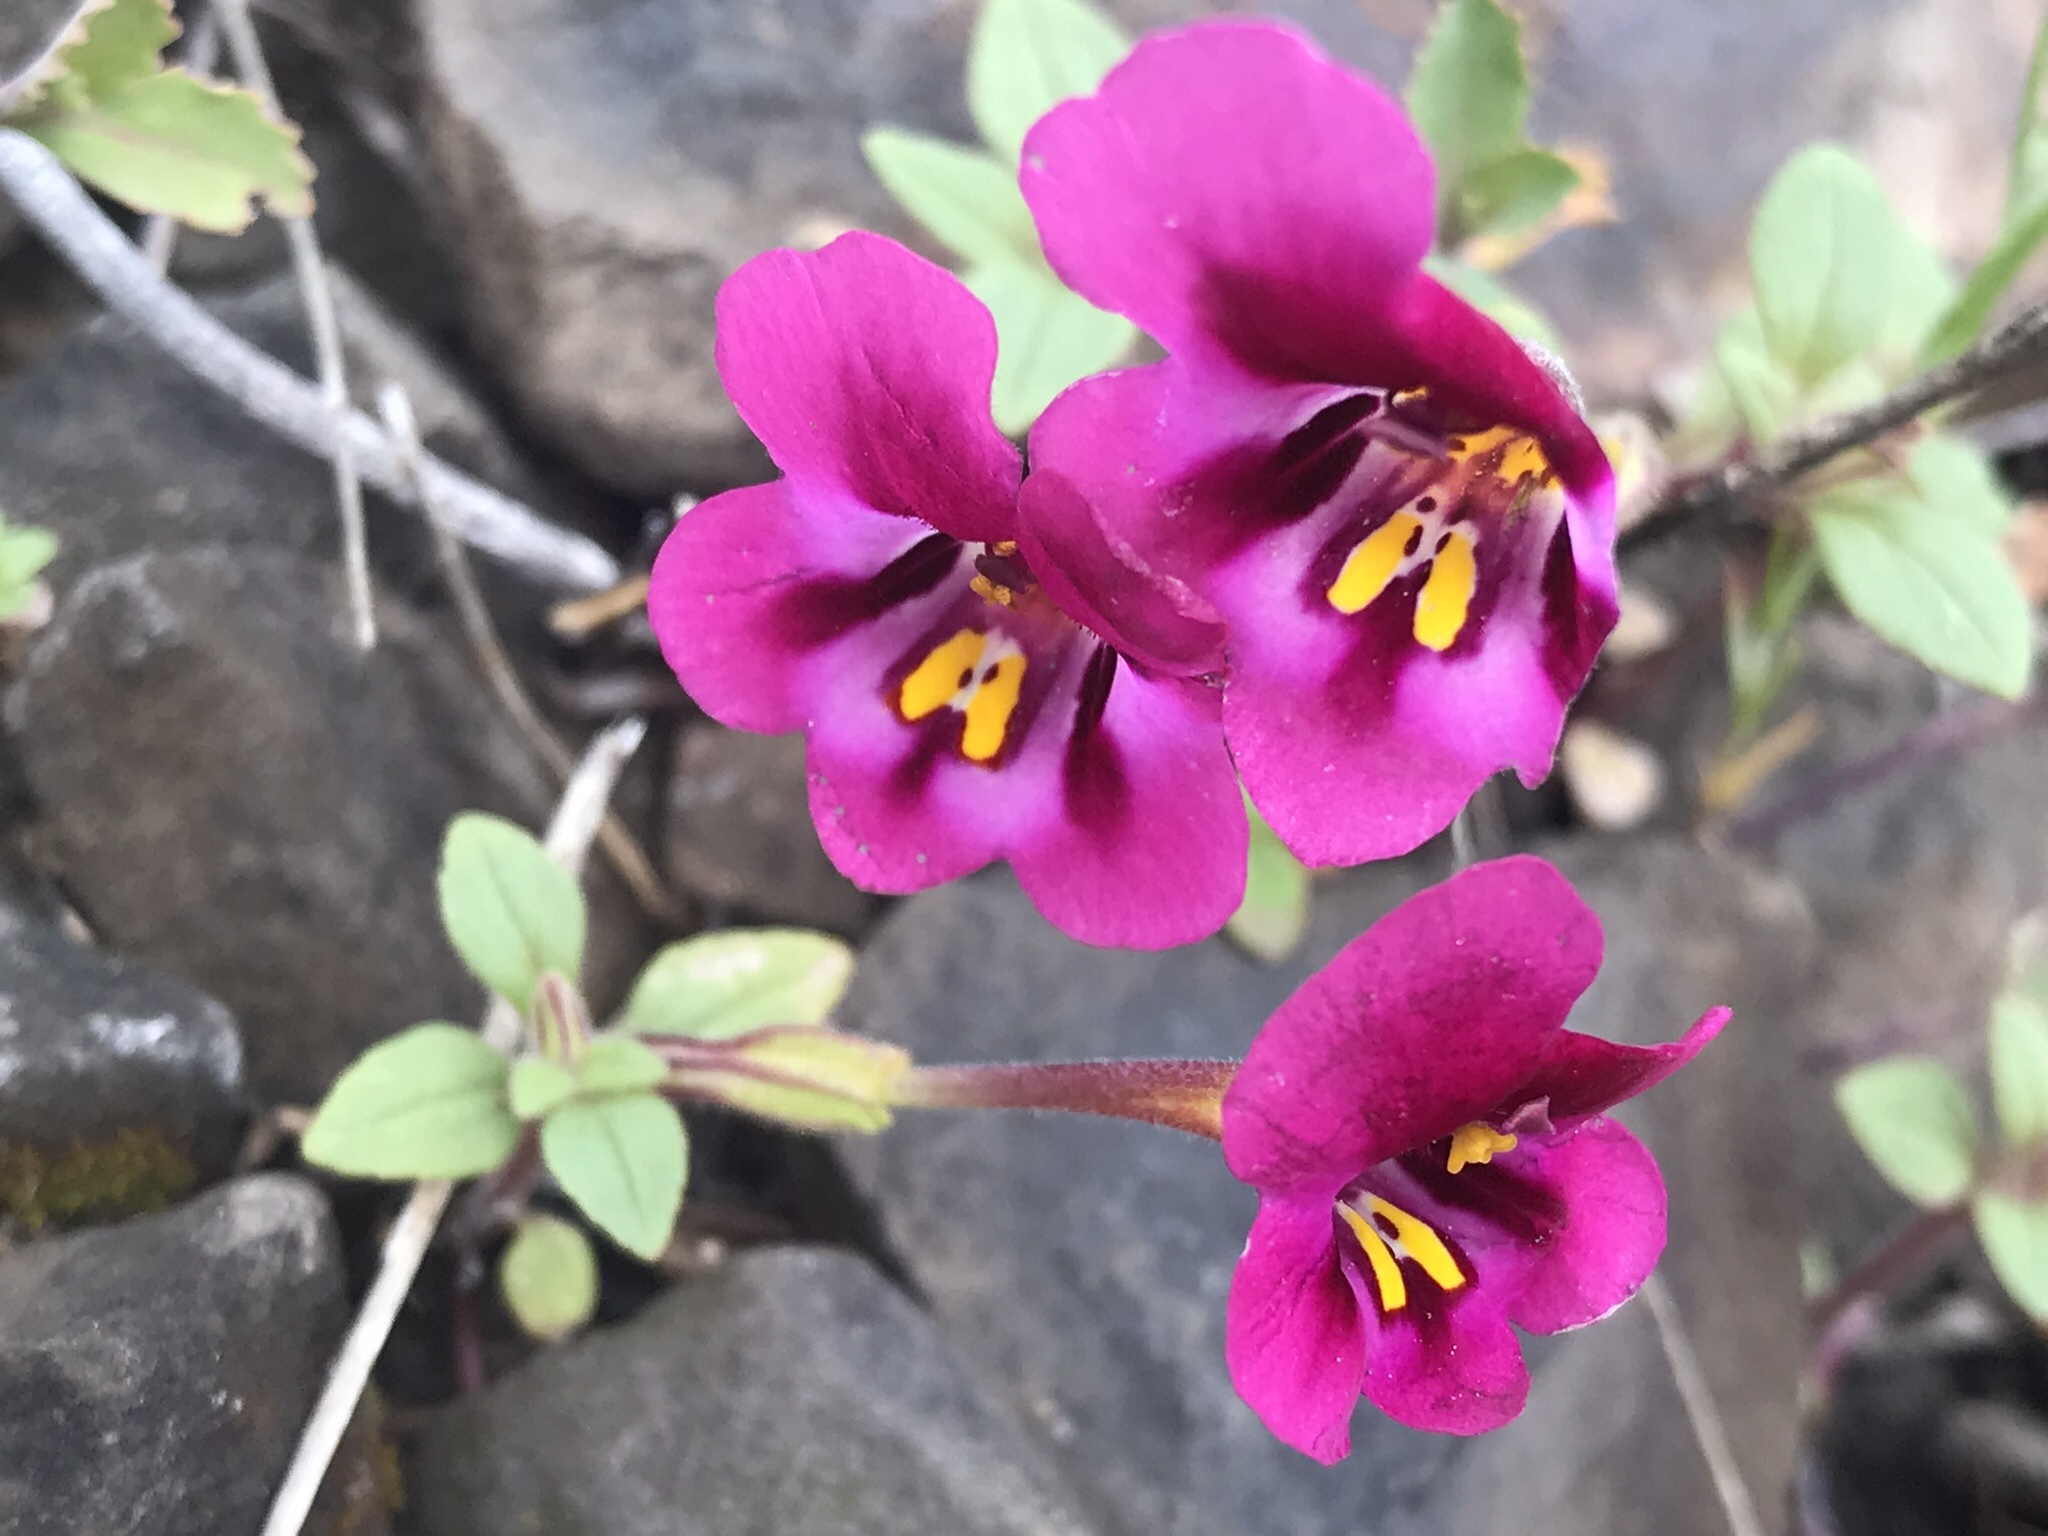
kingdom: Plantae
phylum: Tracheophyta
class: Magnoliopsida
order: Lamiales
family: Phrymaceae
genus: Diplacus
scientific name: Diplacus kelloggii
